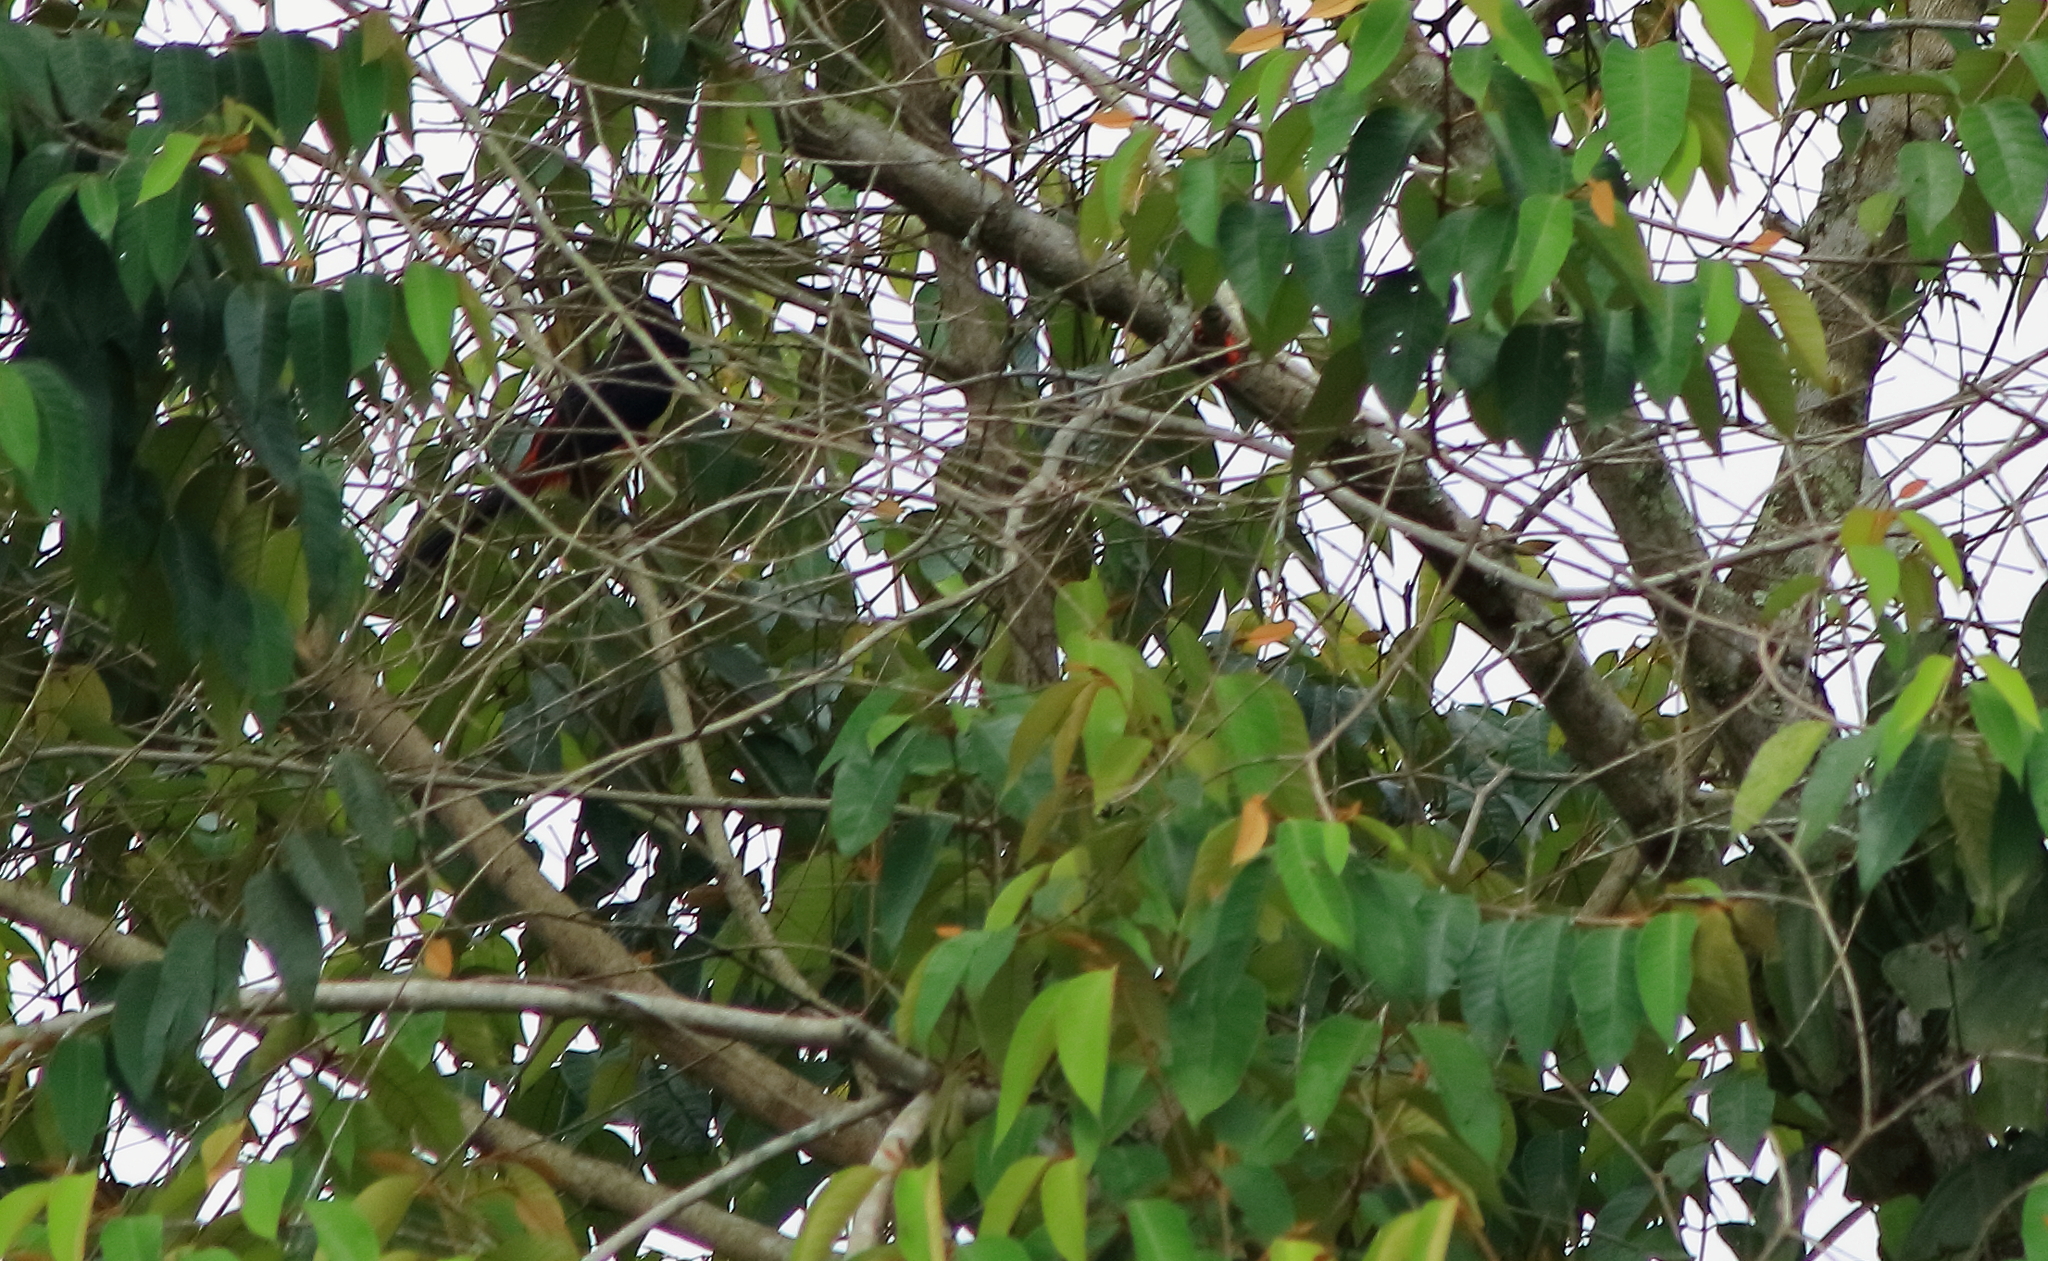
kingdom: Animalia
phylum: Chordata
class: Aves
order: Piciformes
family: Ramphastidae
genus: Pteroglossus
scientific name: Pteroglossus torquatus
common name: Collared aracari
